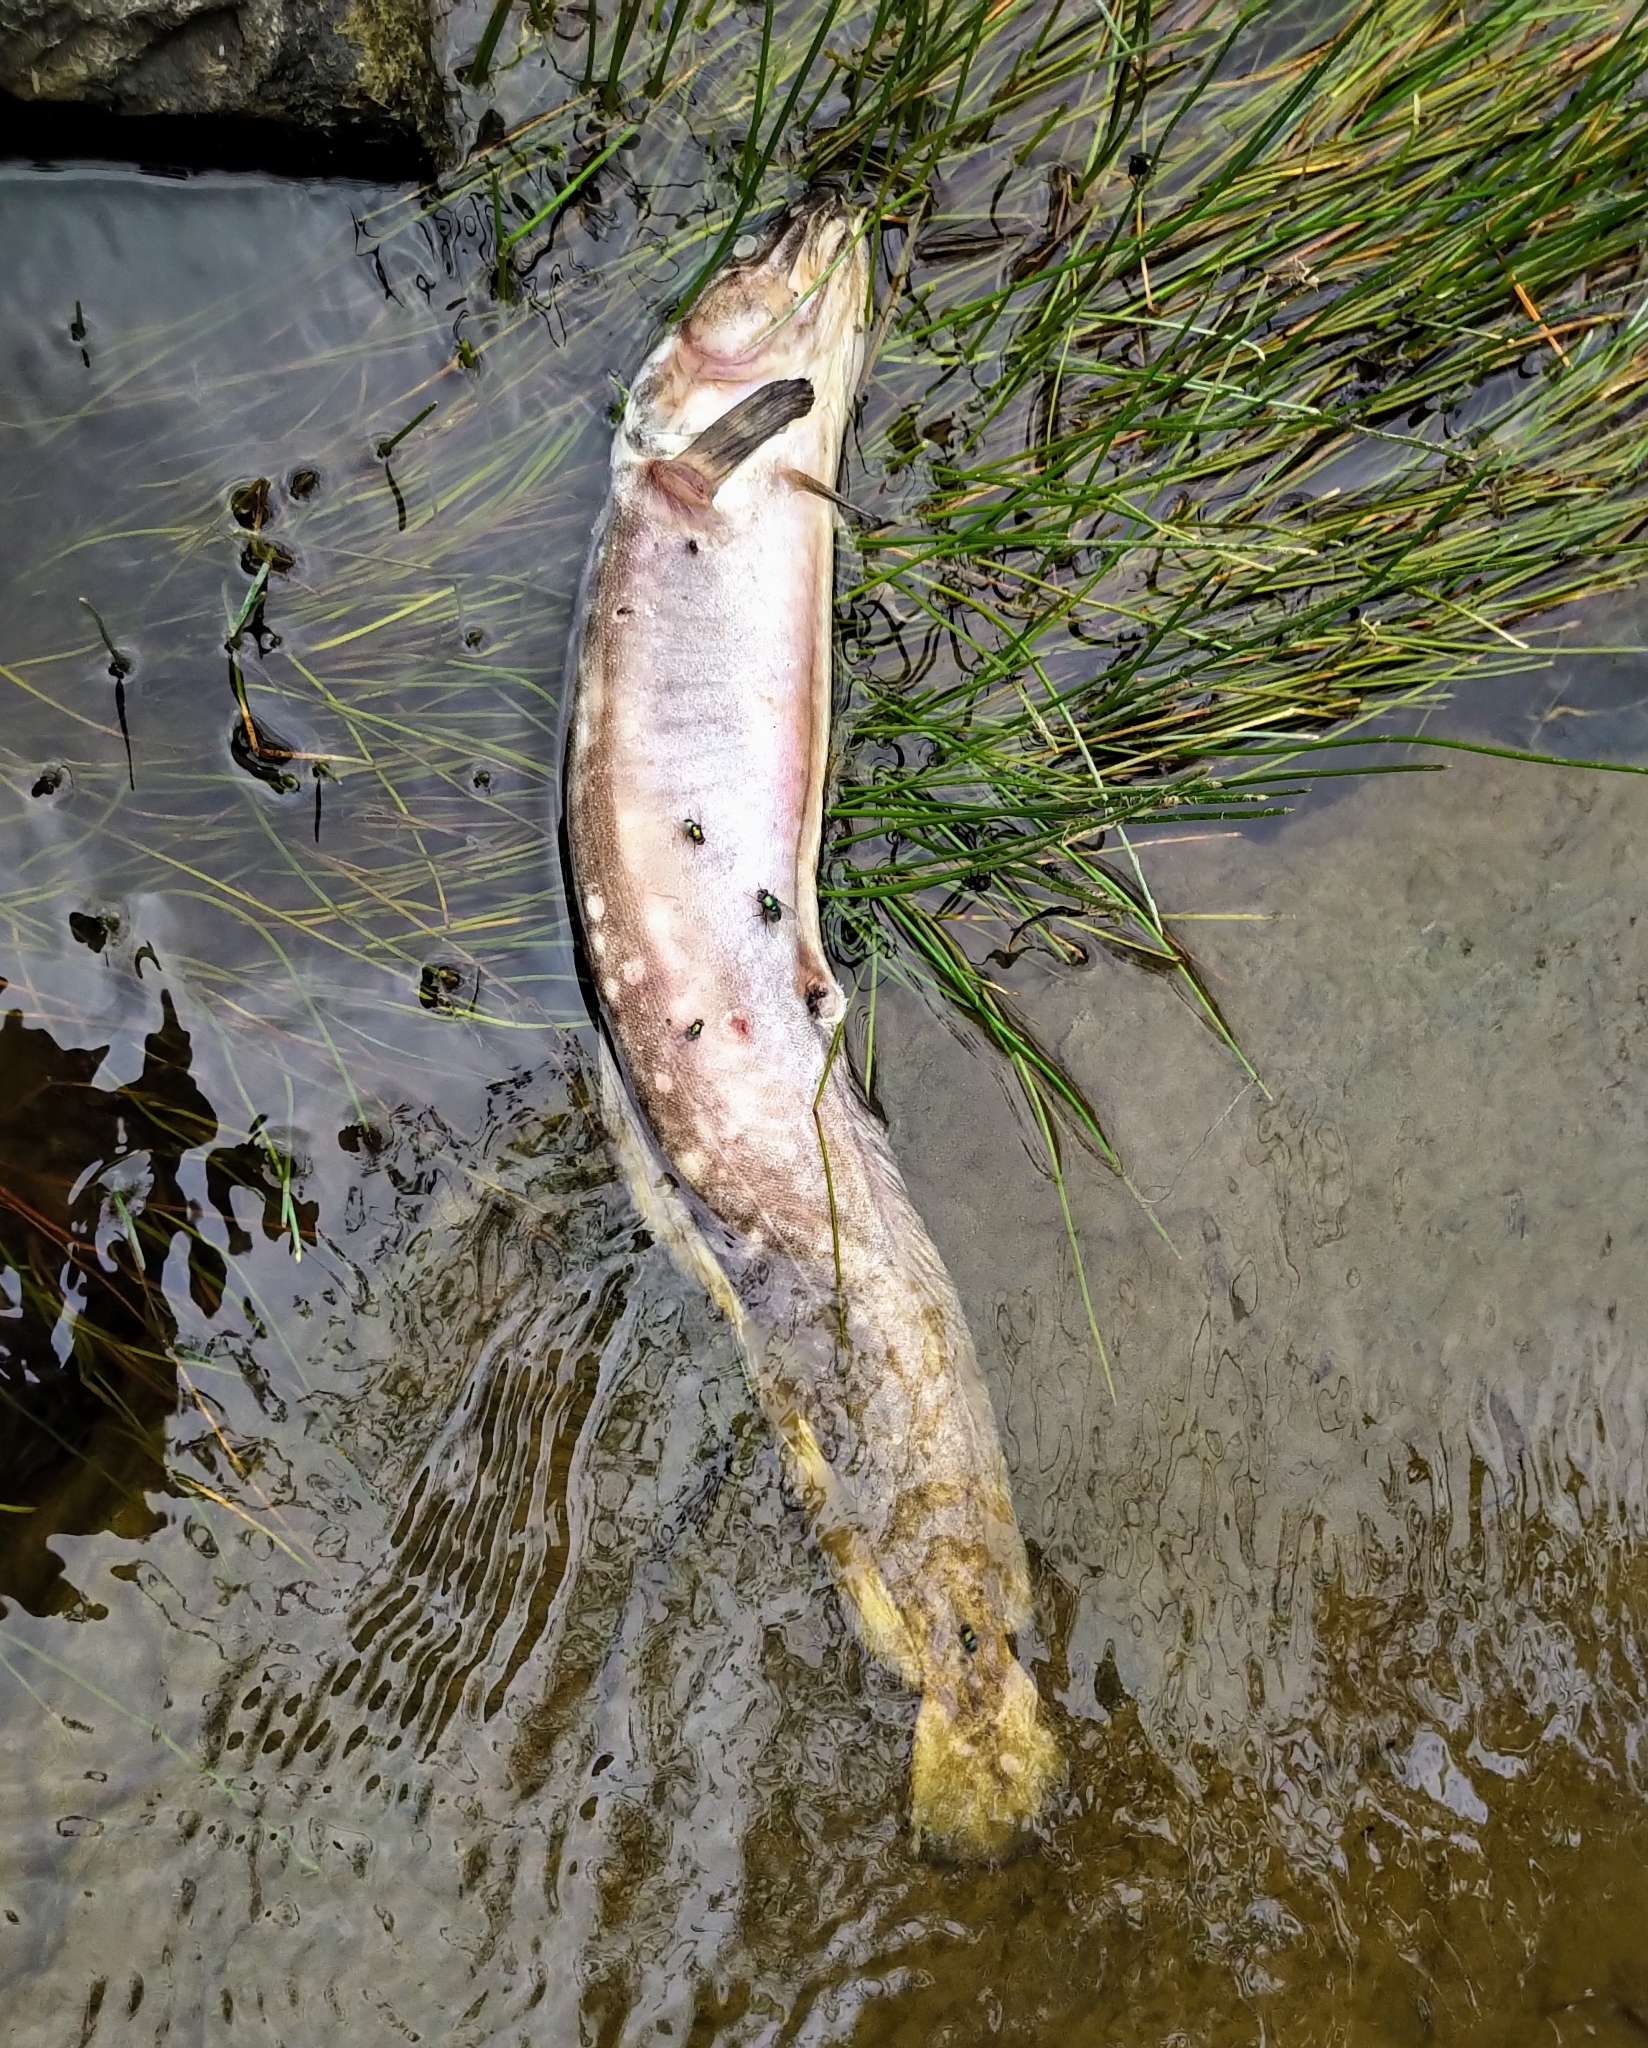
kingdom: Animalia
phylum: Chordata
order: Gadiformes
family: Lotidae
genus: Lota
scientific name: Lota lota
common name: Burbot
